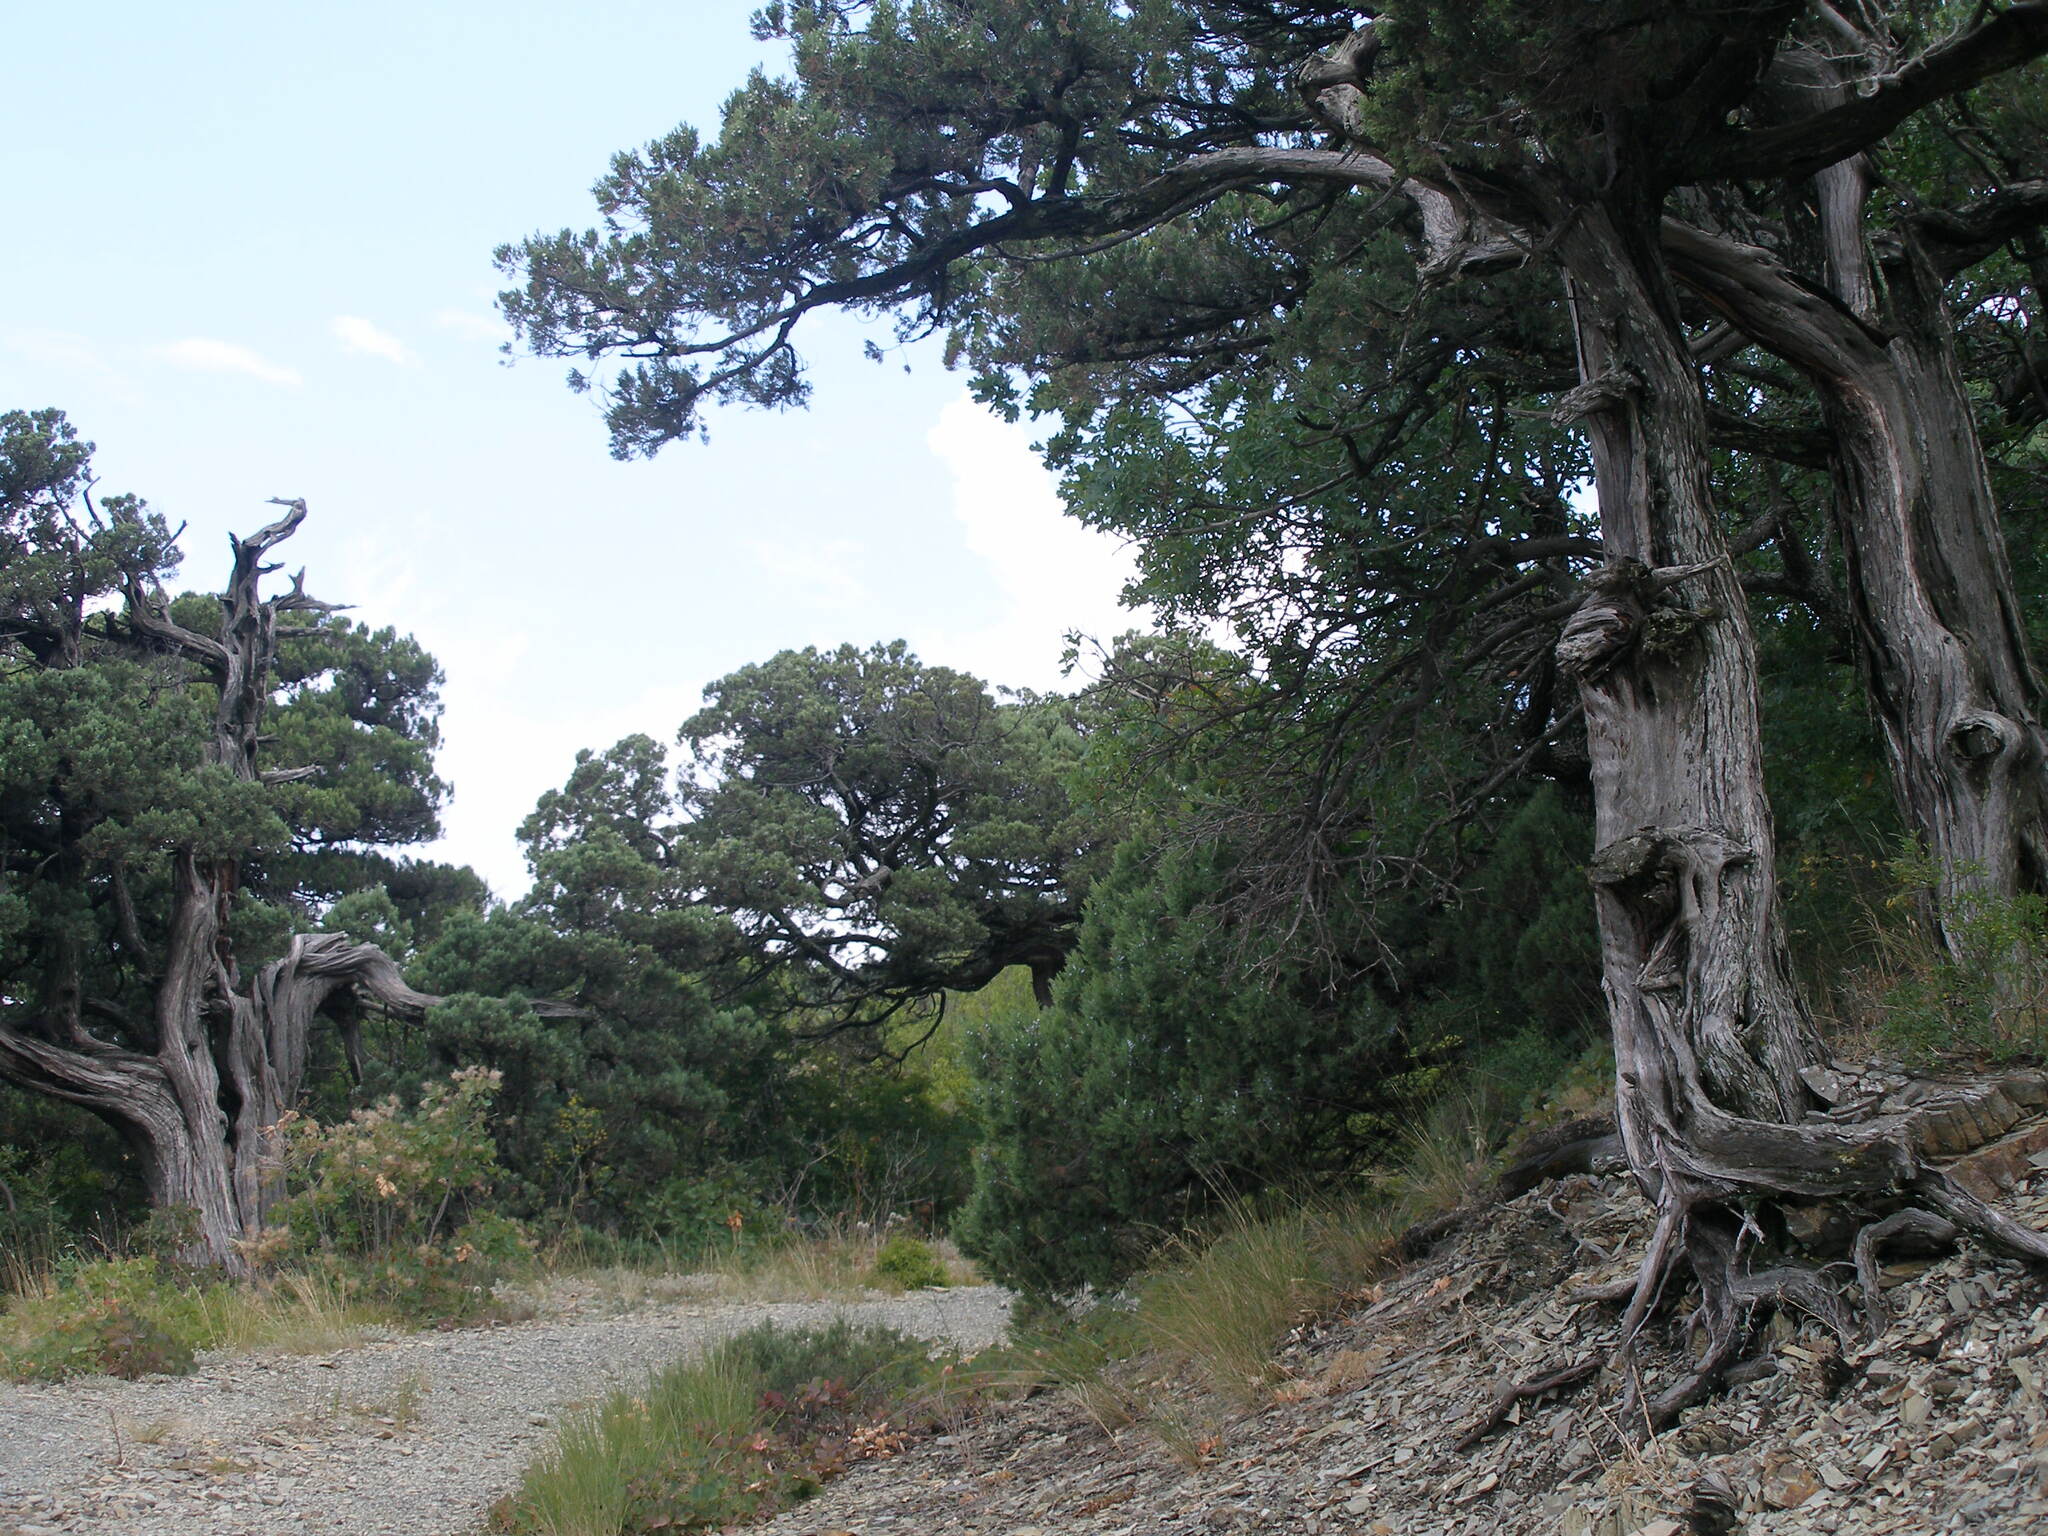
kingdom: Plantae
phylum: Tracheophyta
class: Pinopsida
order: Pinales
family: Cupressaceae
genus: Juniperus
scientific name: Juniperus excelsa
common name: Crimean juniper
